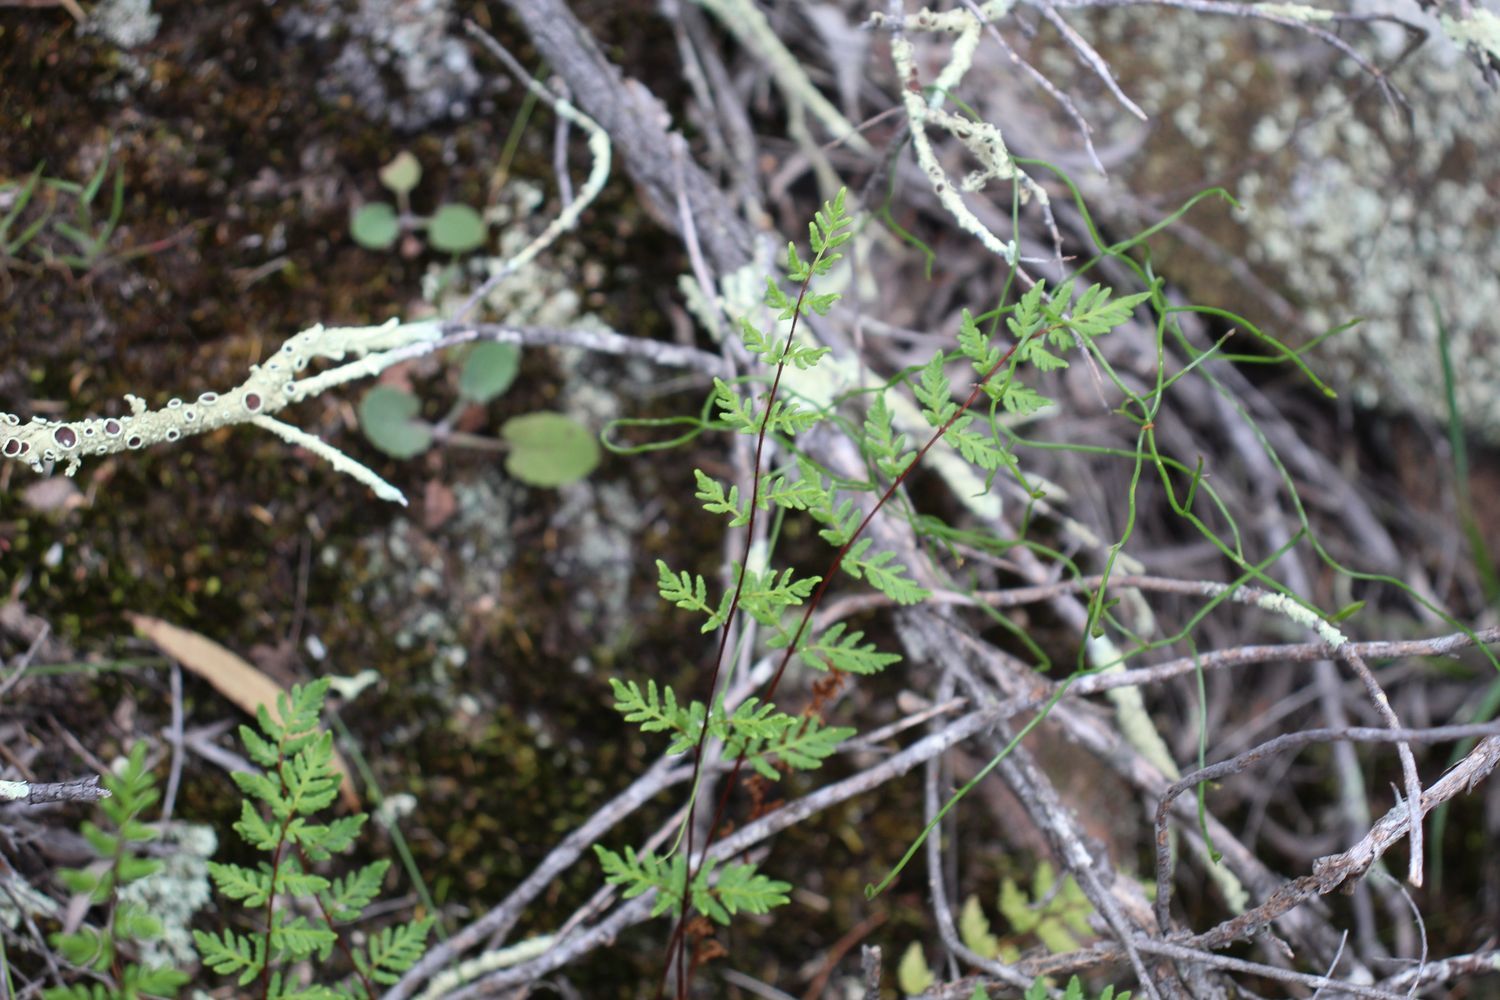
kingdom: Plantae
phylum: Tracheophyta
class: Polypodiopsida
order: Polypodiales
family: Pteridaceae
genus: Cheilanthes
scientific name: Cheilanthes sieberi
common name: Mulga fern
